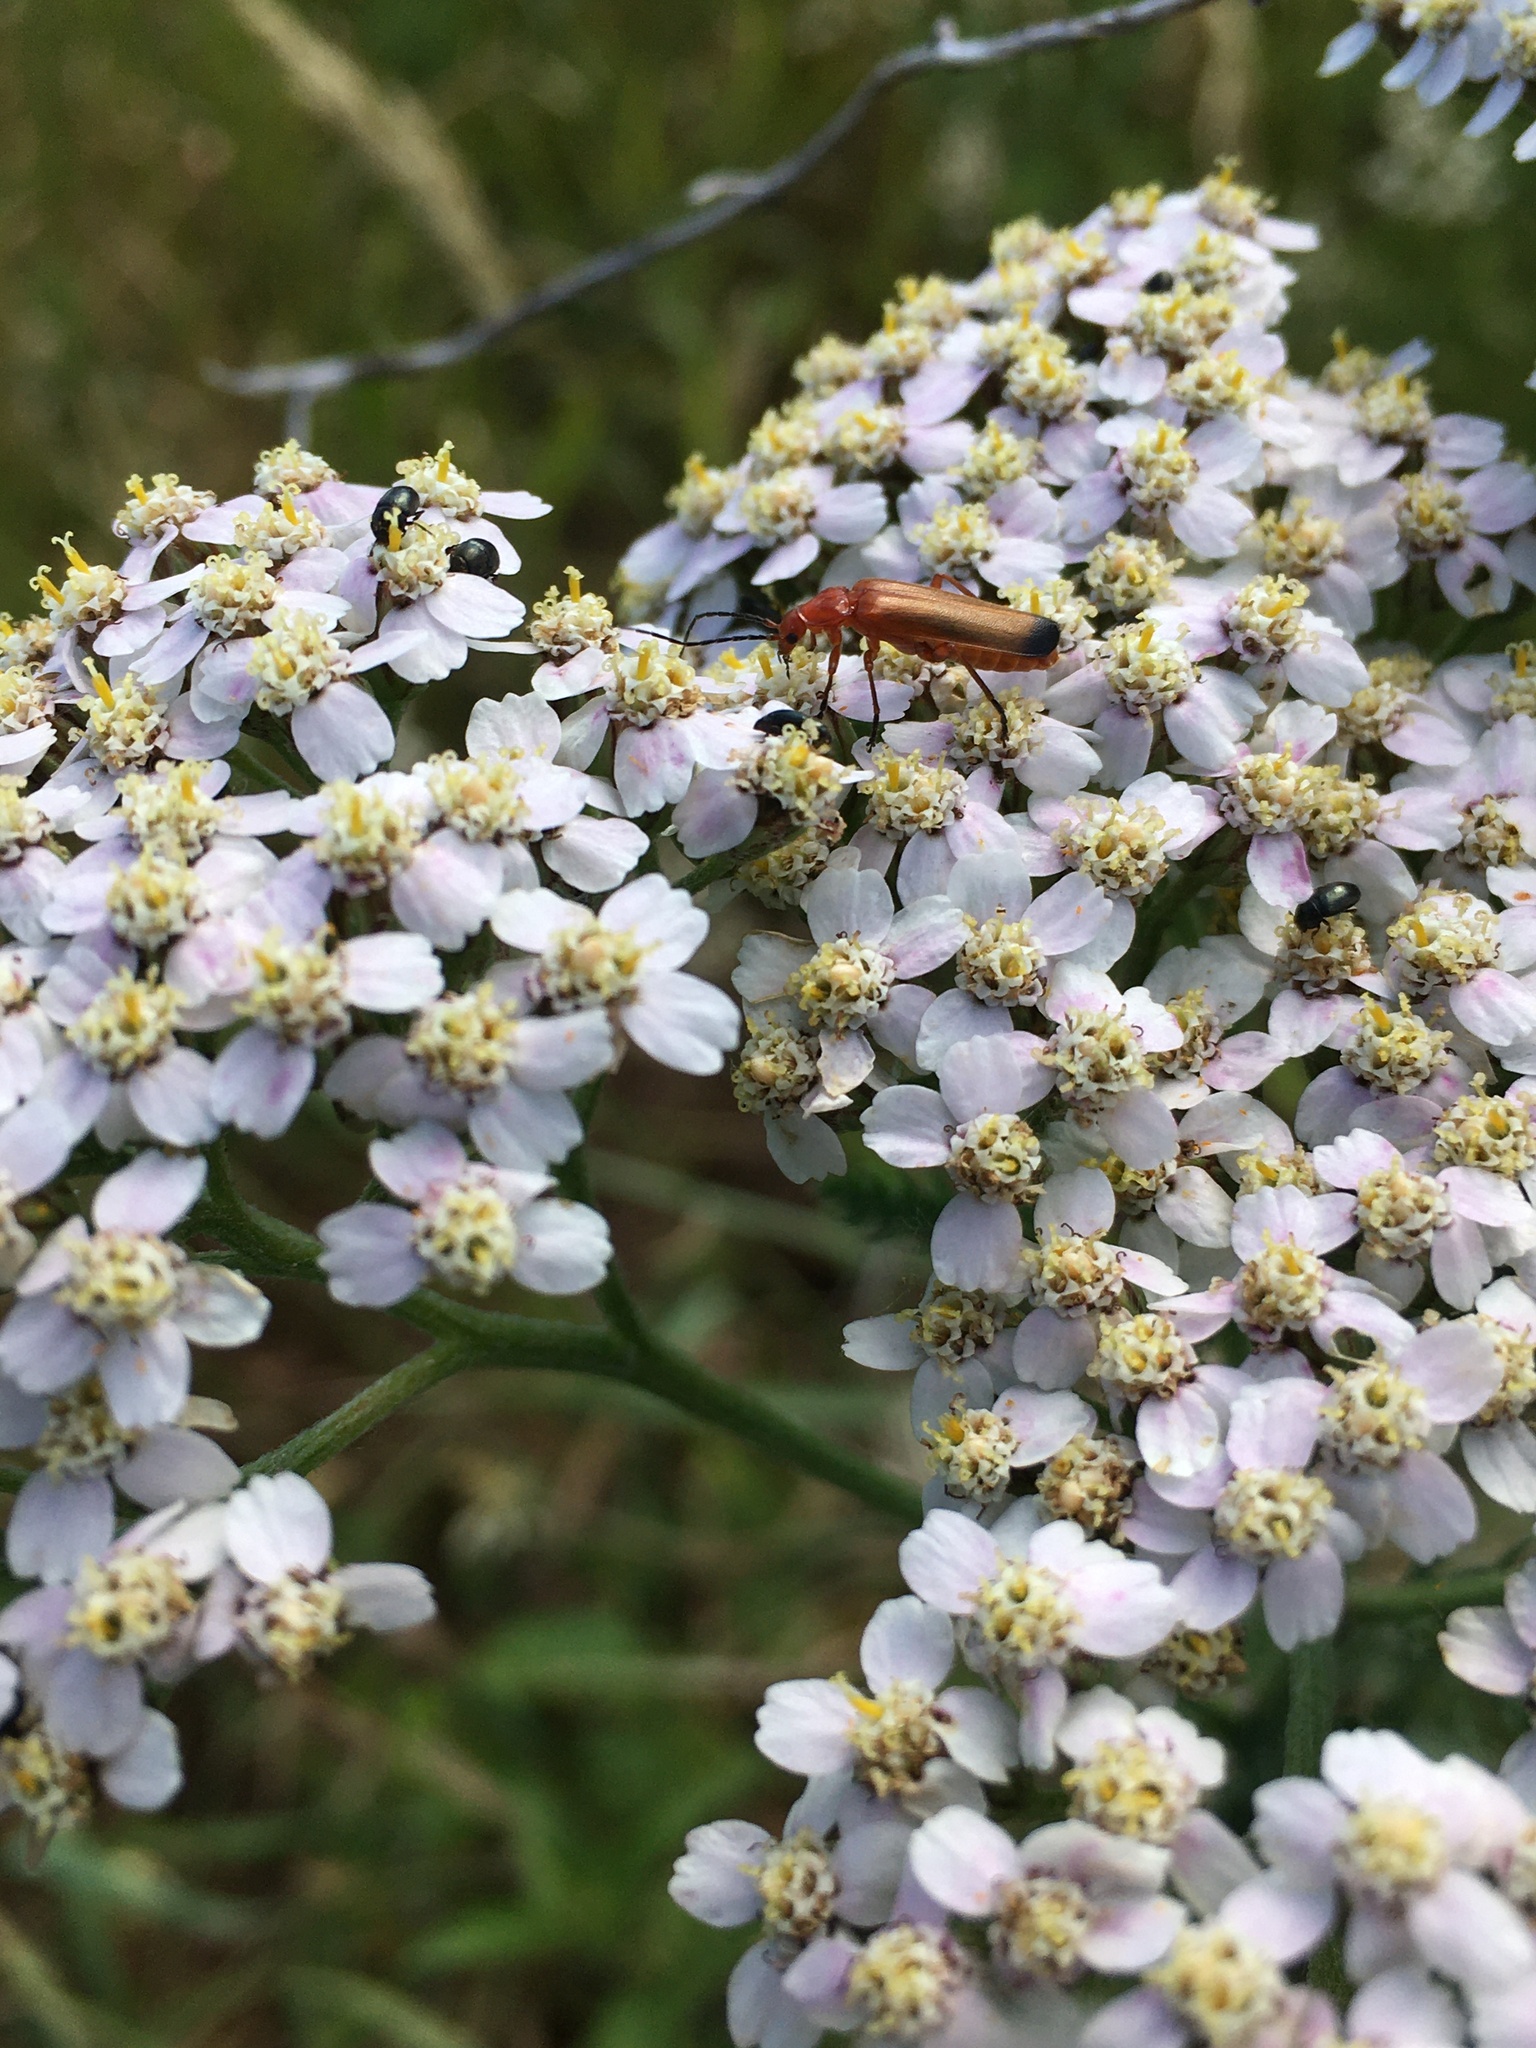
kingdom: Animalia
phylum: Arthropoda
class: Insecta
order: Coleoptera
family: Cantharidae
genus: Rhagonycha
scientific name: Rhagonycha fulva
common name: Common red soldier beetle
